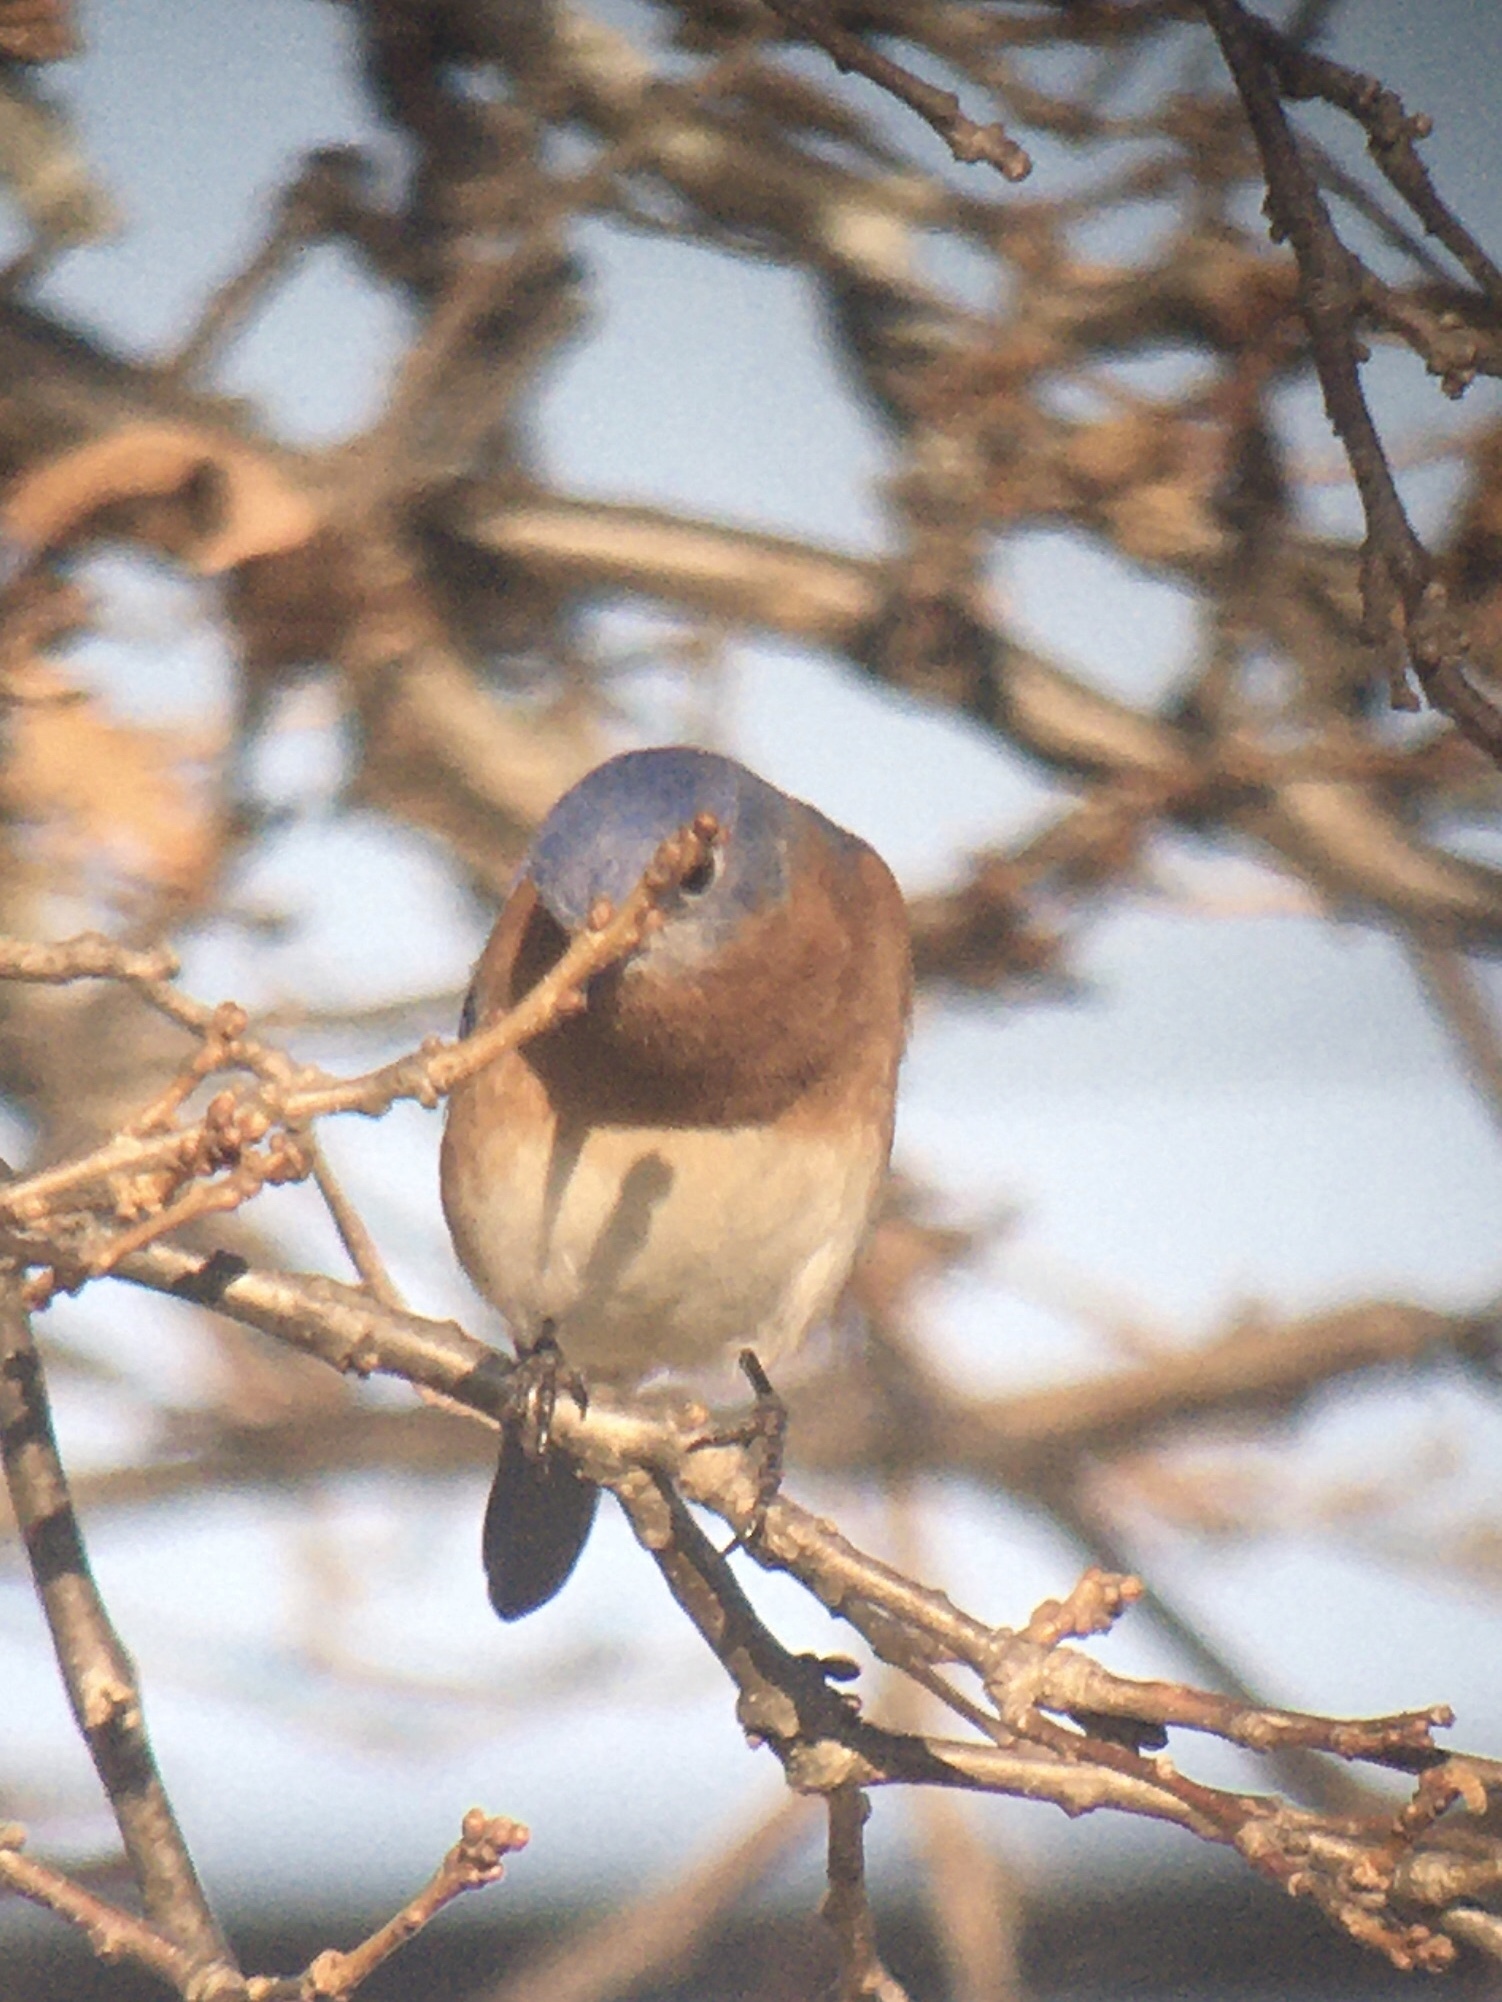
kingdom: Animalia
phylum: Chordata
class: Aves
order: Passeriformes
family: Turdidae
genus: Sialia
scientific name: Sialia sialis
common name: Eastern bluebird
